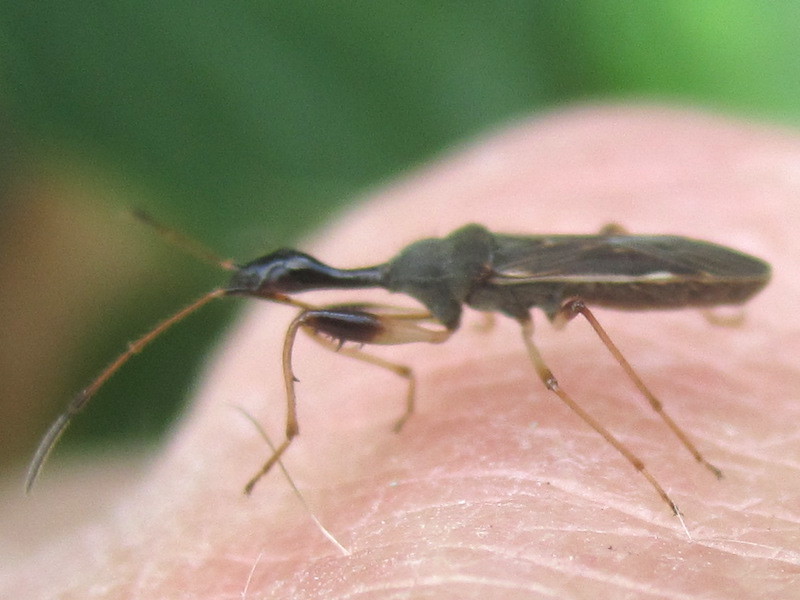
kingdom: Animalia
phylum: Arthropoda
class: Insecta
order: Hemiptera
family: Rhyparochromidae
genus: Myodocha
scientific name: Myodocha serripes
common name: Long-necked seed bug
